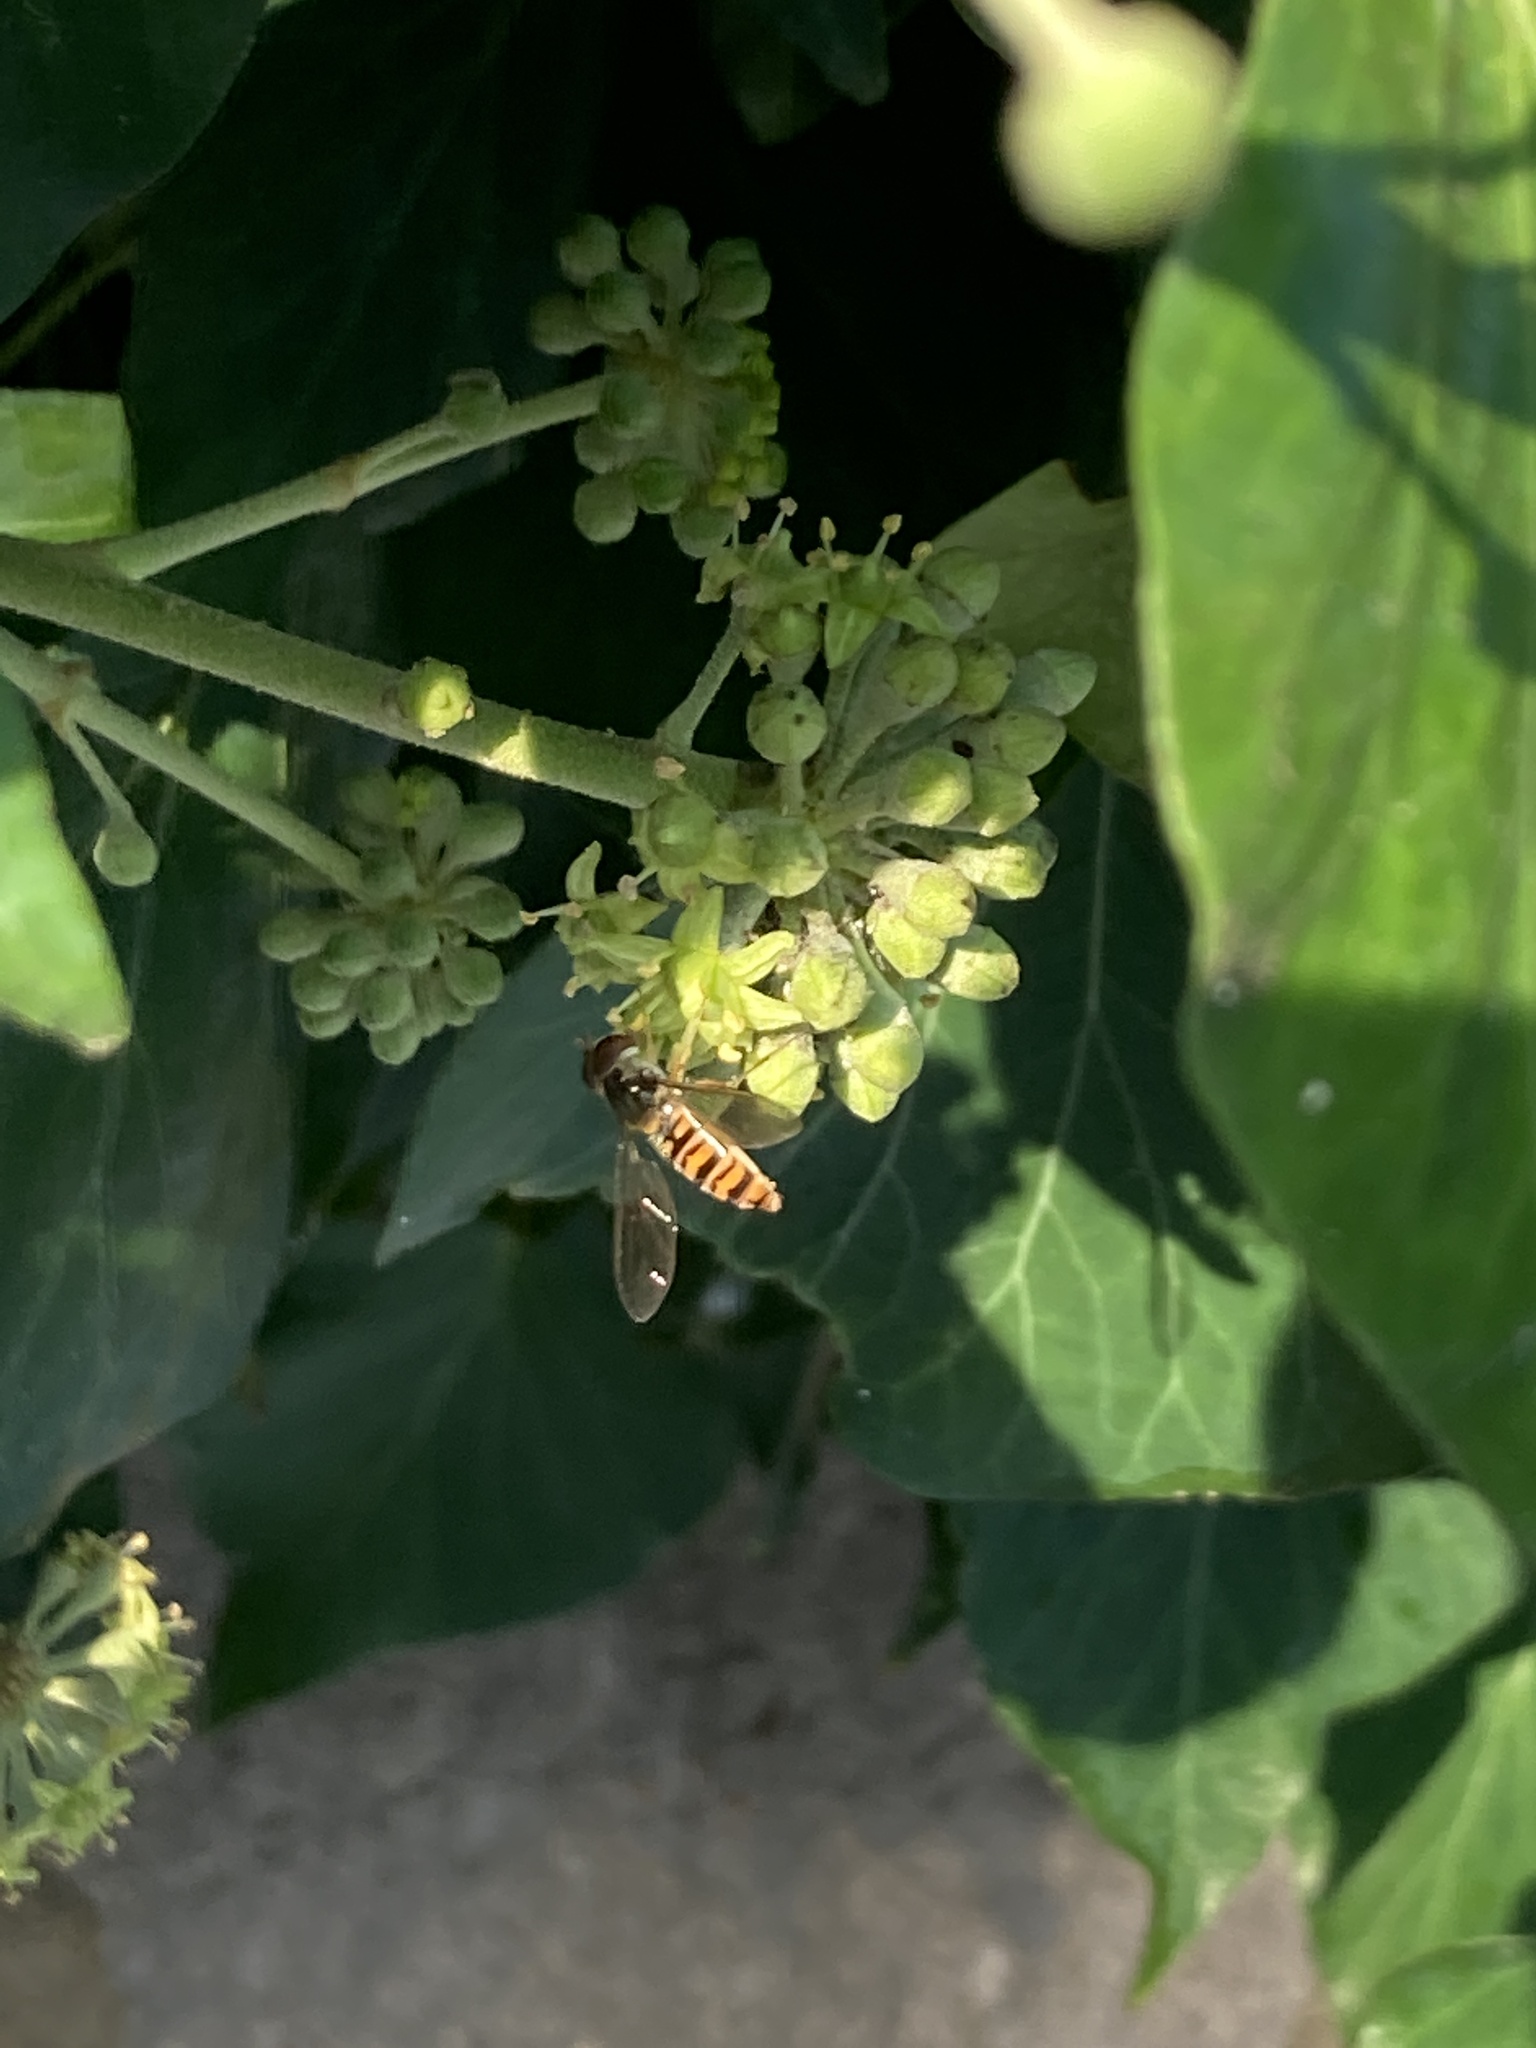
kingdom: Animalia
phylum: Arthropoda
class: Insecta
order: Diptera
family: Syrphidae
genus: Episyrphus
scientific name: Episyrphus balteatus
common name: Marmalade hoverfly
